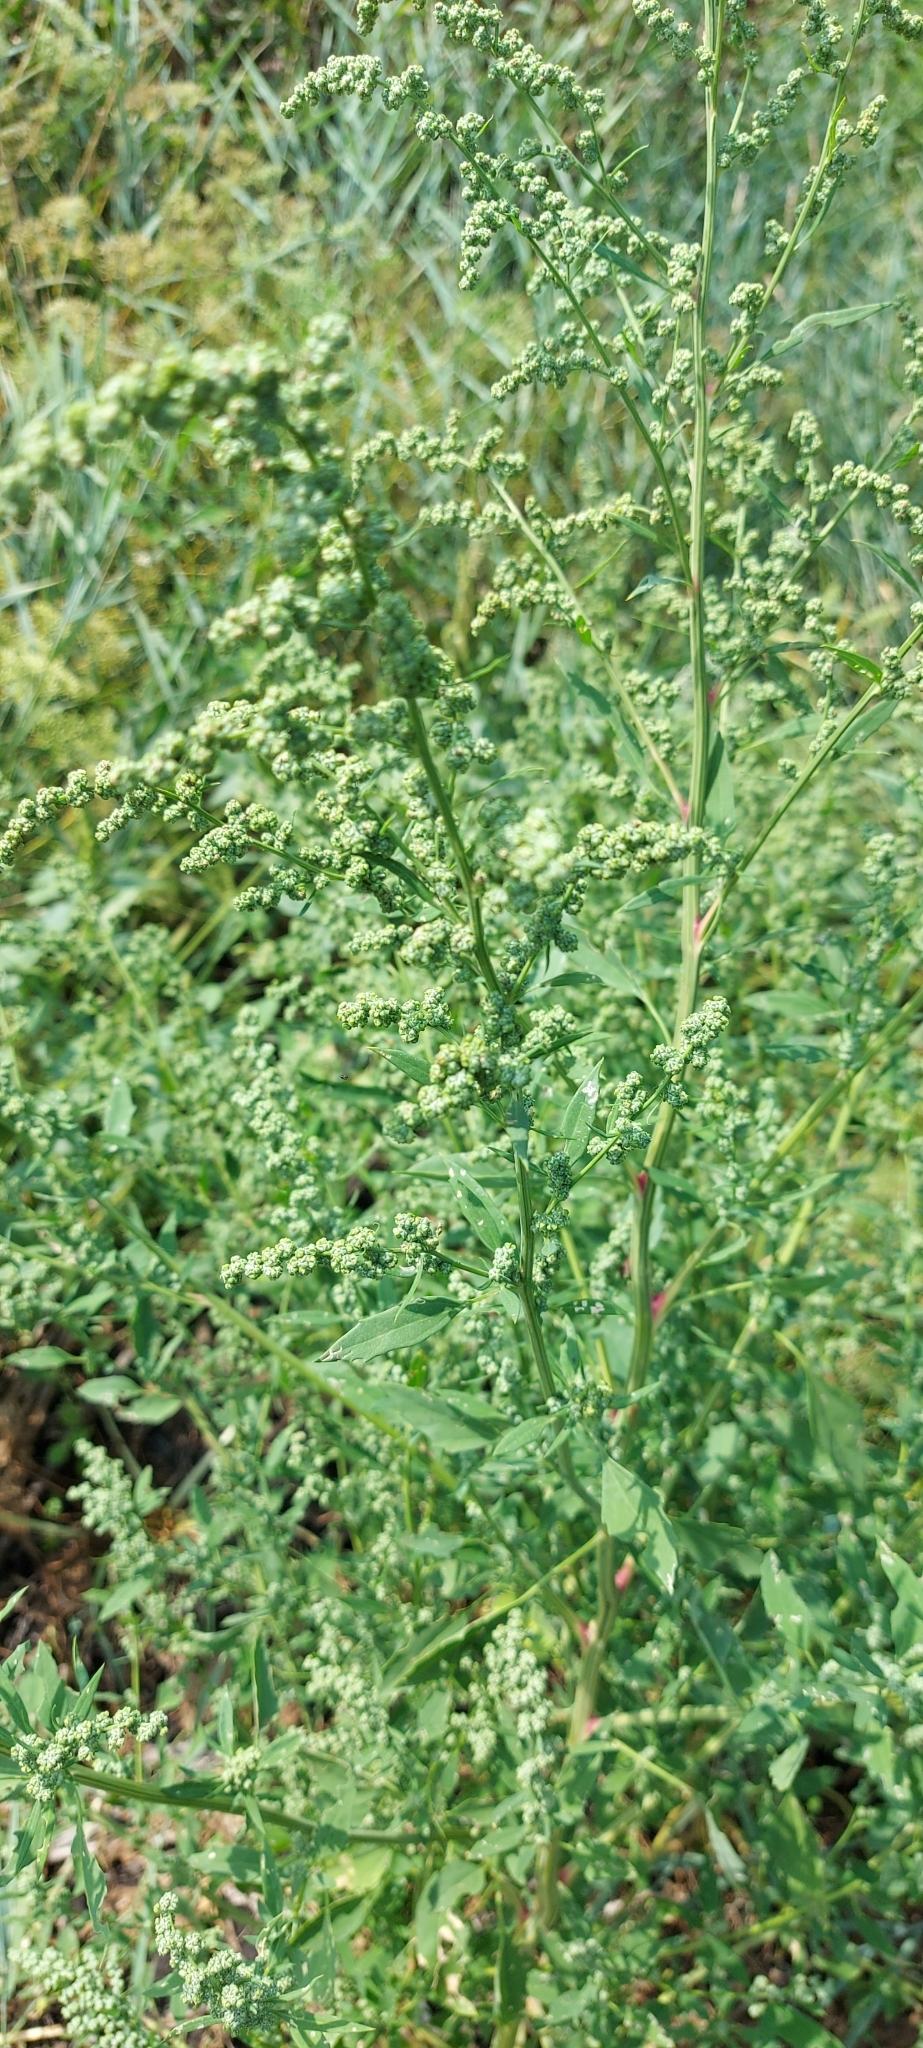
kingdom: Plantae
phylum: Tracheophyta
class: Magnoliopsida
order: Caryophyllales
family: Amaranthaceae
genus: Chenopodium
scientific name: Chenopodium album
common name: Fat-hen
